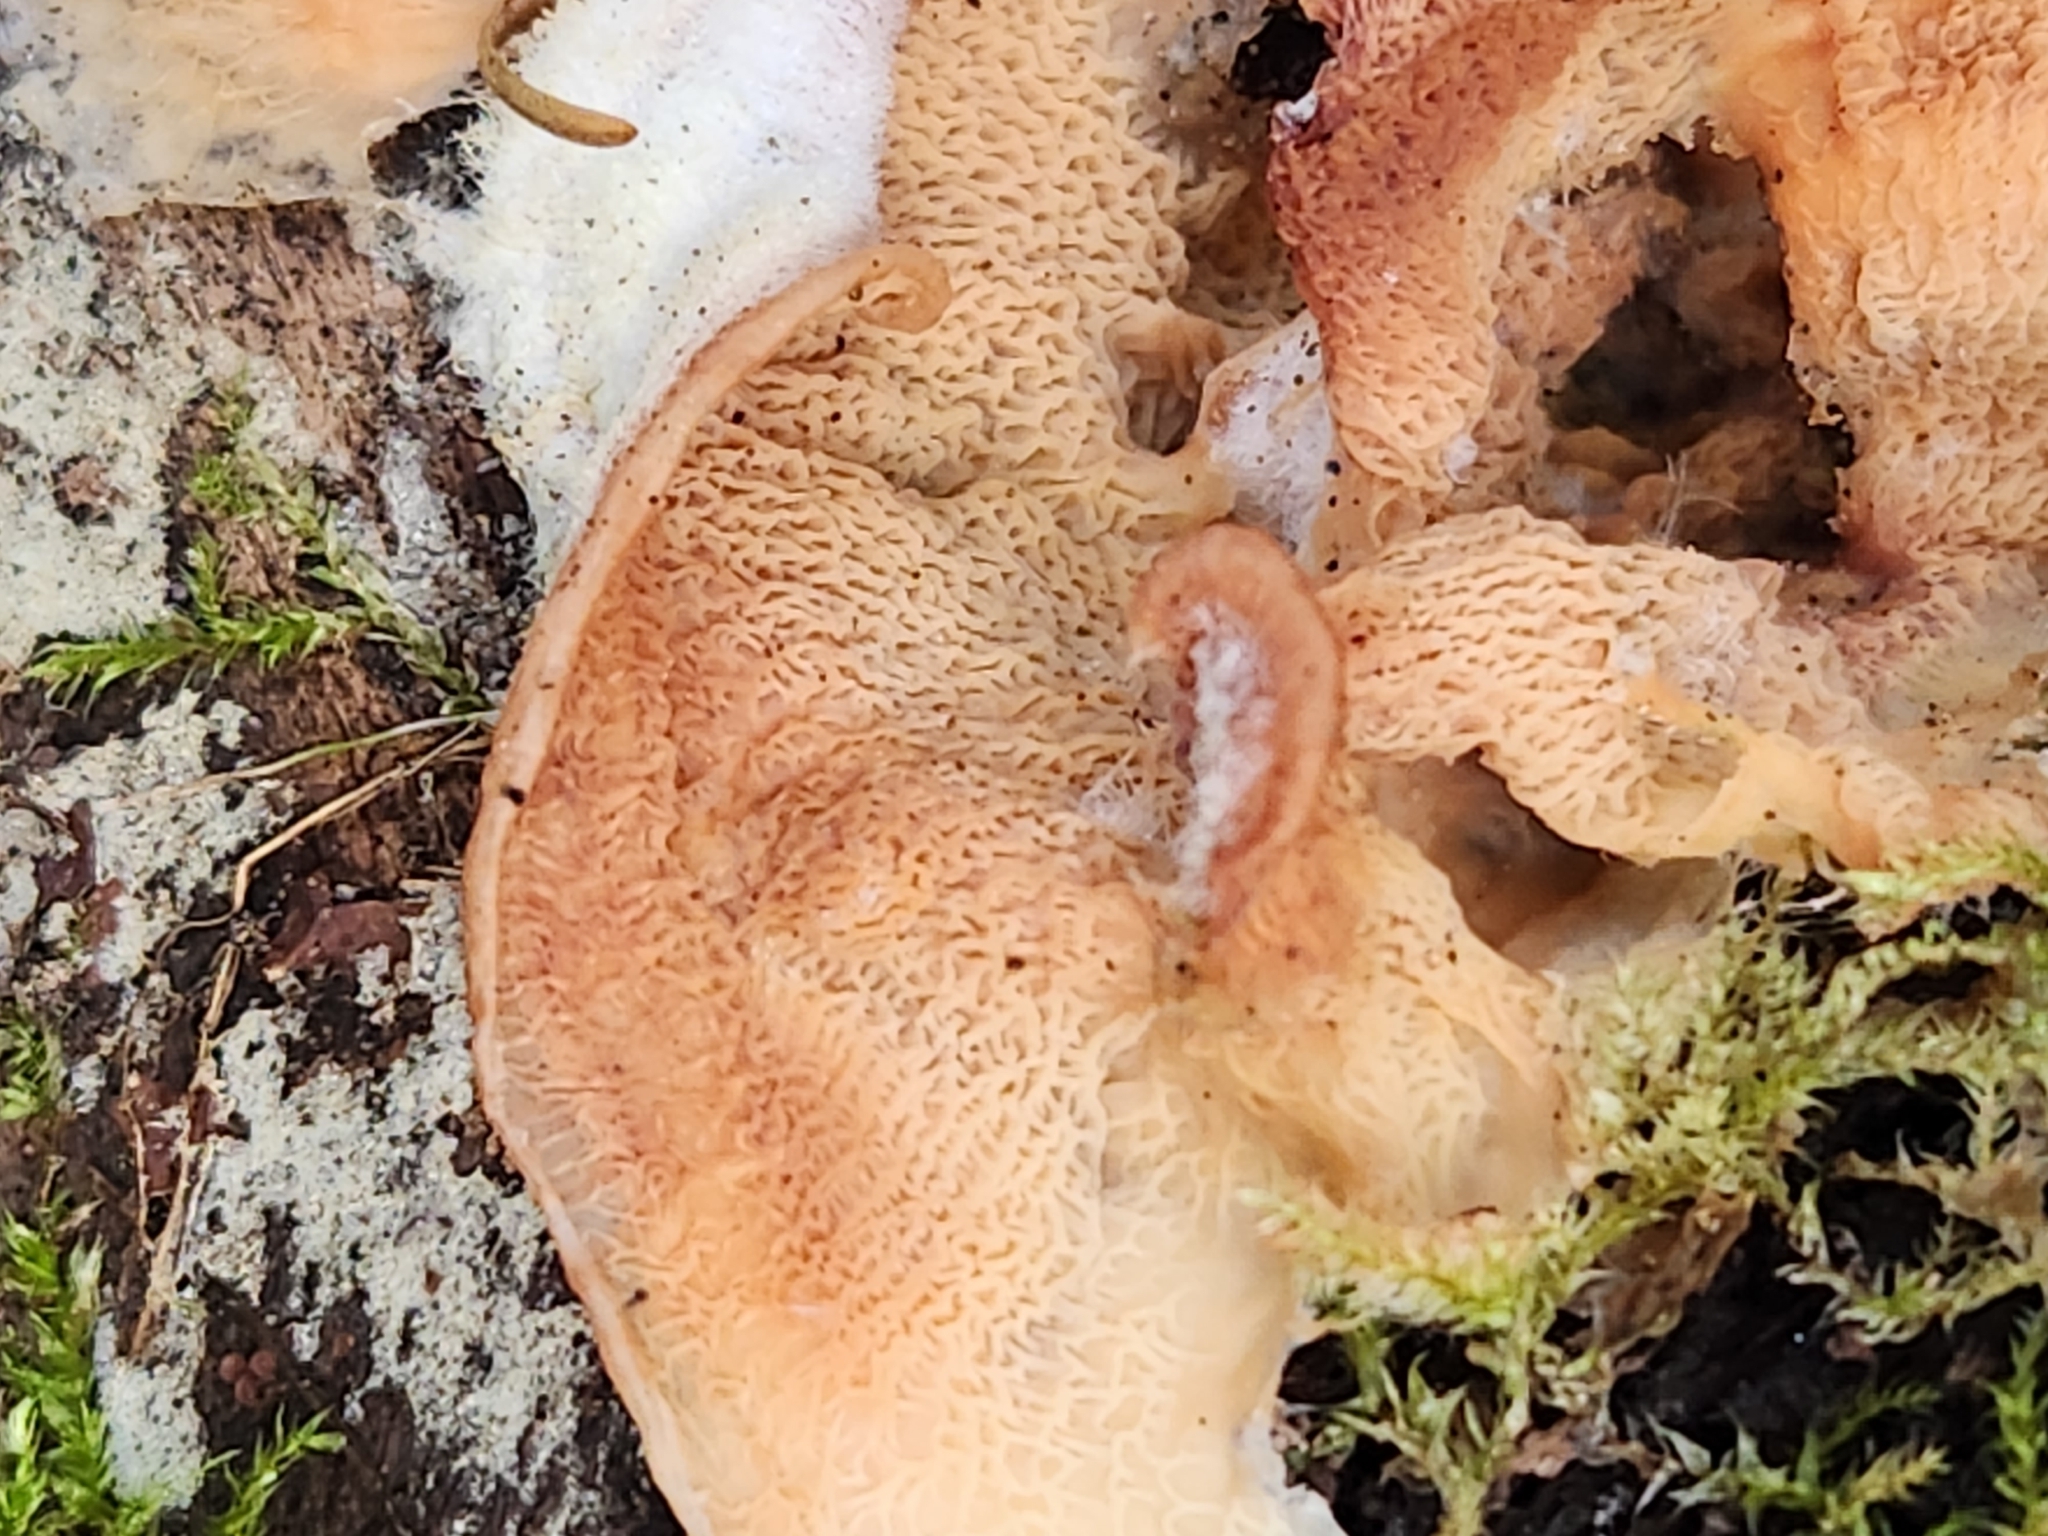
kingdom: Fungi
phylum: Basidiomycota
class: Agaricomycetes
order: Polyporales
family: Meruliaceae
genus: Phlebia
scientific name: Phlebia tremellosa
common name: Jelly rot
